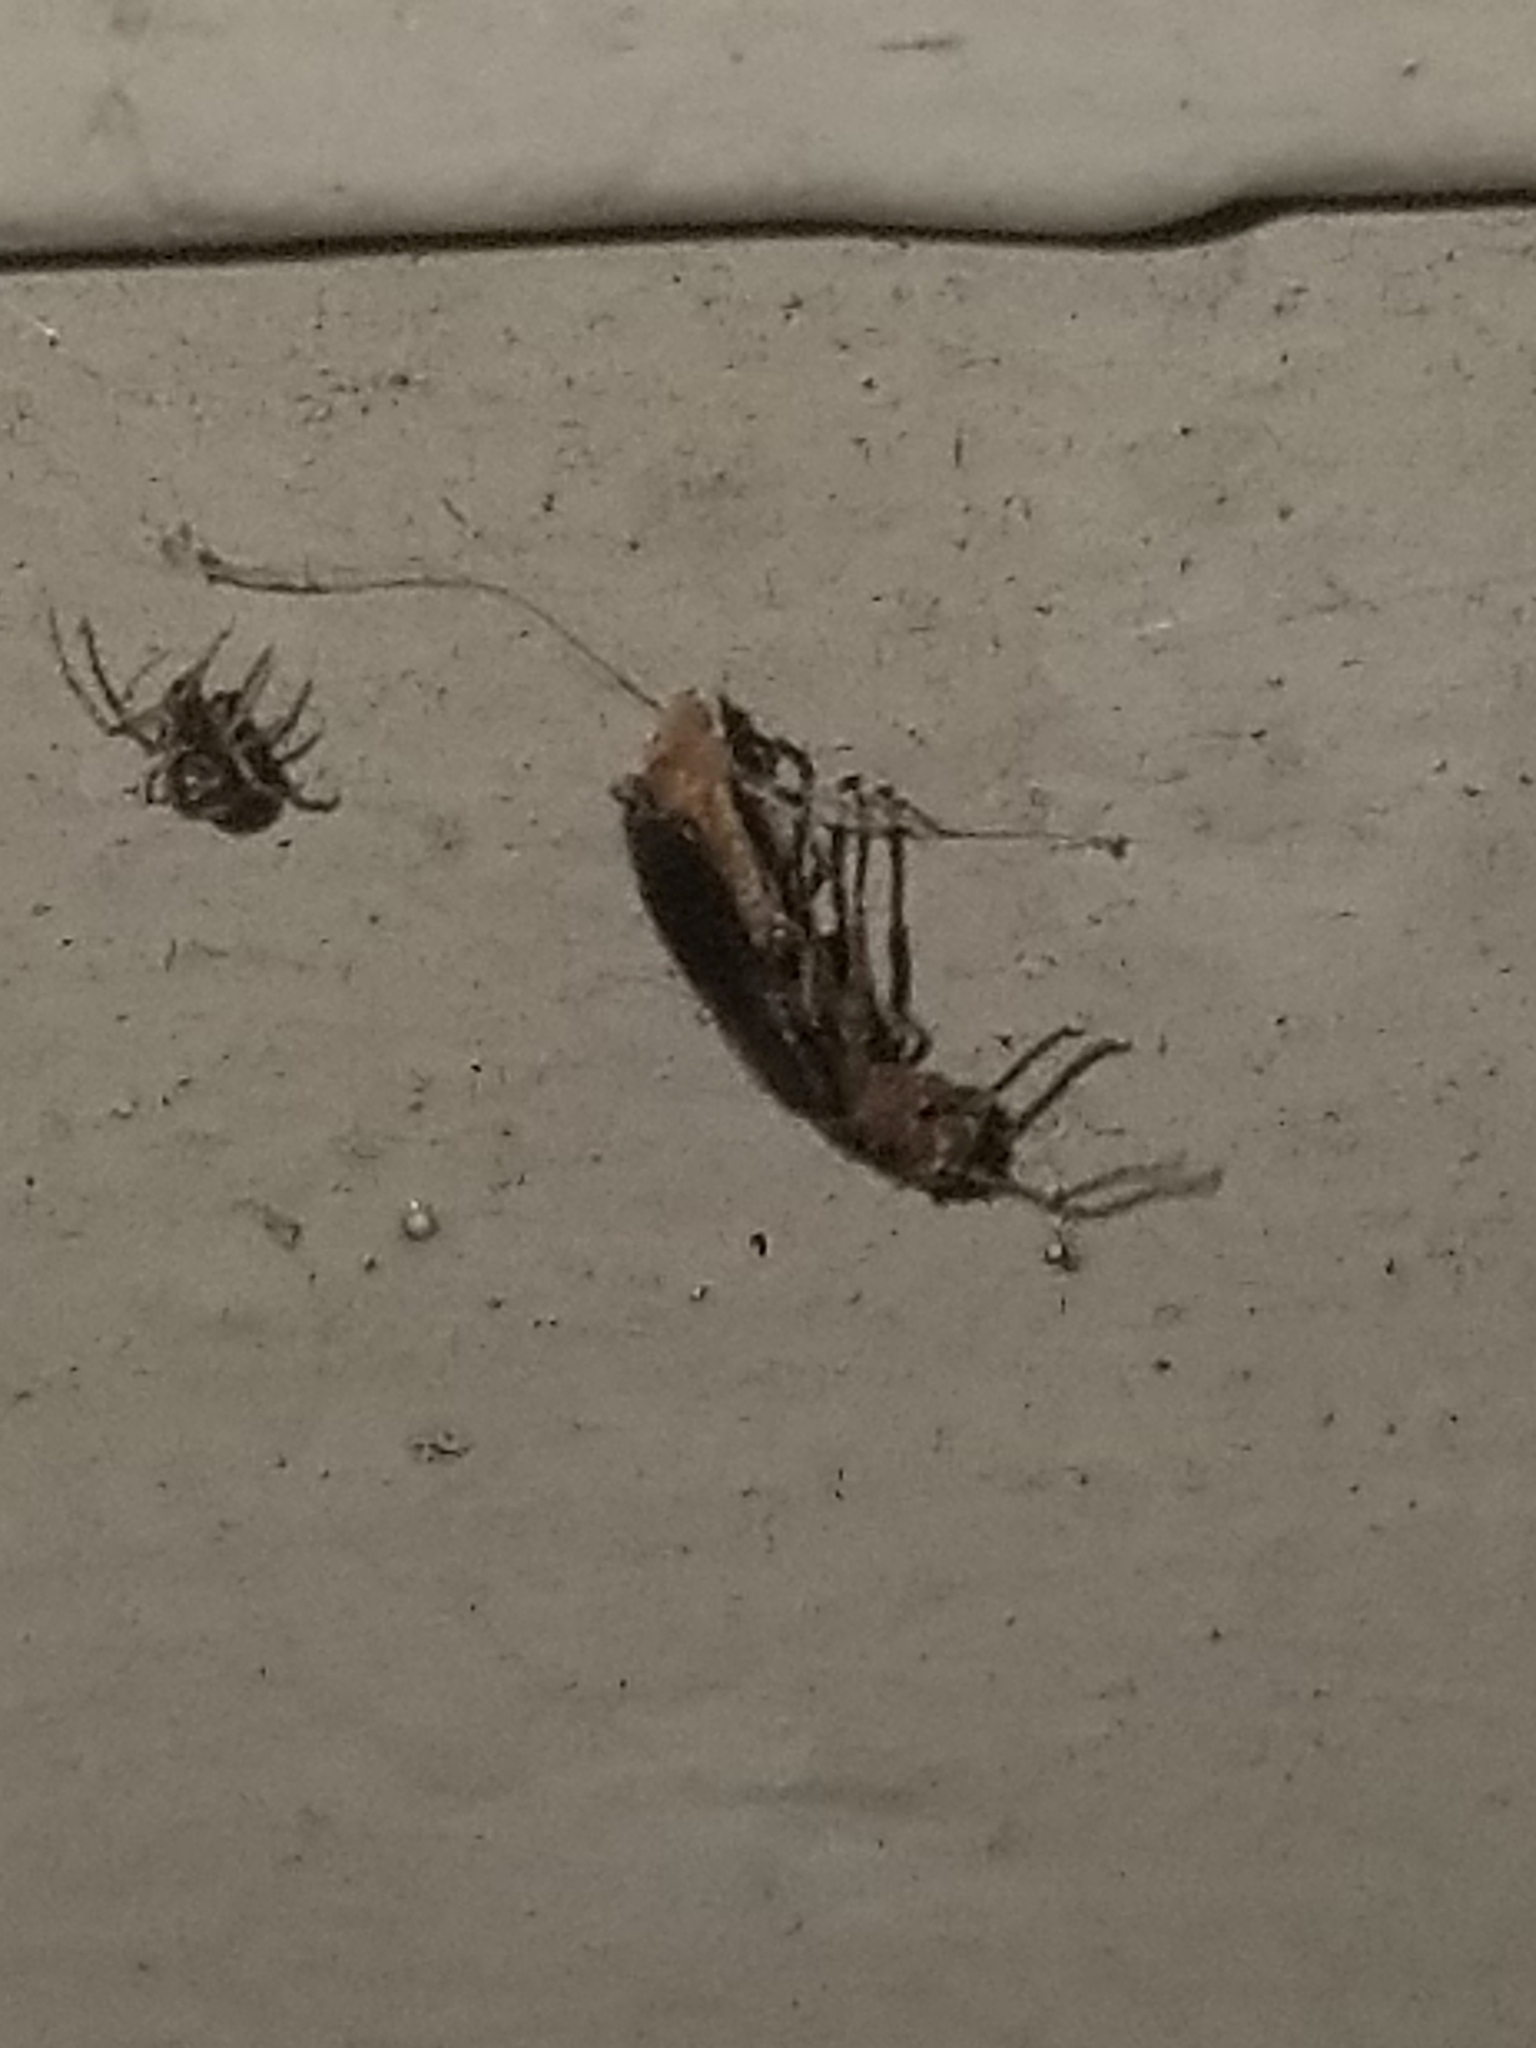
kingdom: Animalia
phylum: Arthropoda
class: Insecta
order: Coleoptera
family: Cantharidae
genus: Atalantycha
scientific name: Atalantycha bilineata
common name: Two-lined leatherwing
